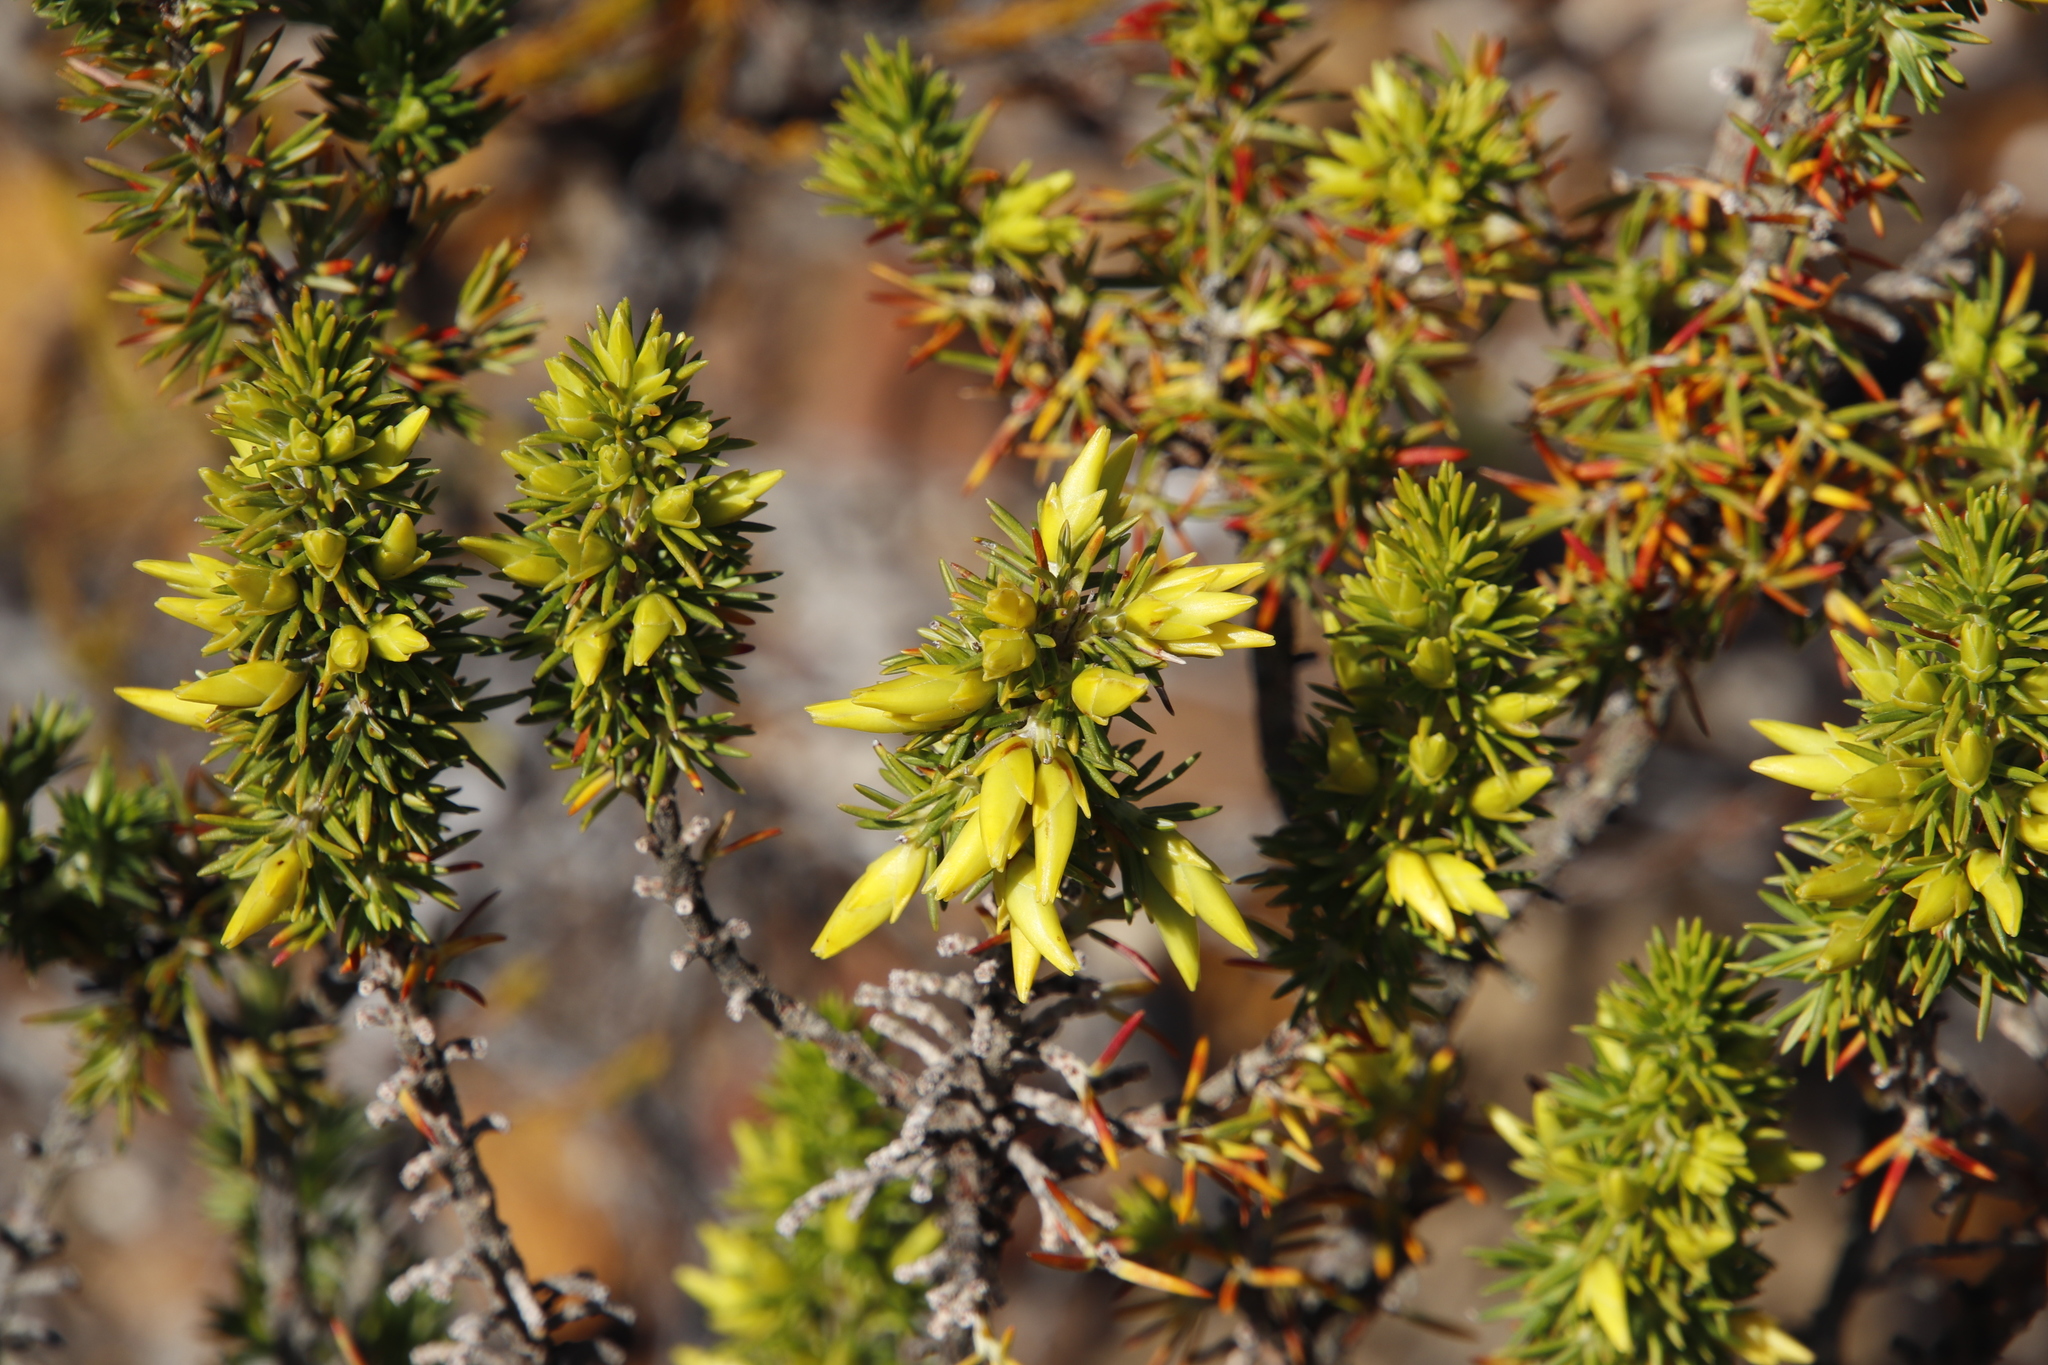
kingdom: Plantae
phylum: Tracheophyta
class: Magnoliopsida
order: Ericales
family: Ericaceae
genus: Erica
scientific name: Erica coccinea
